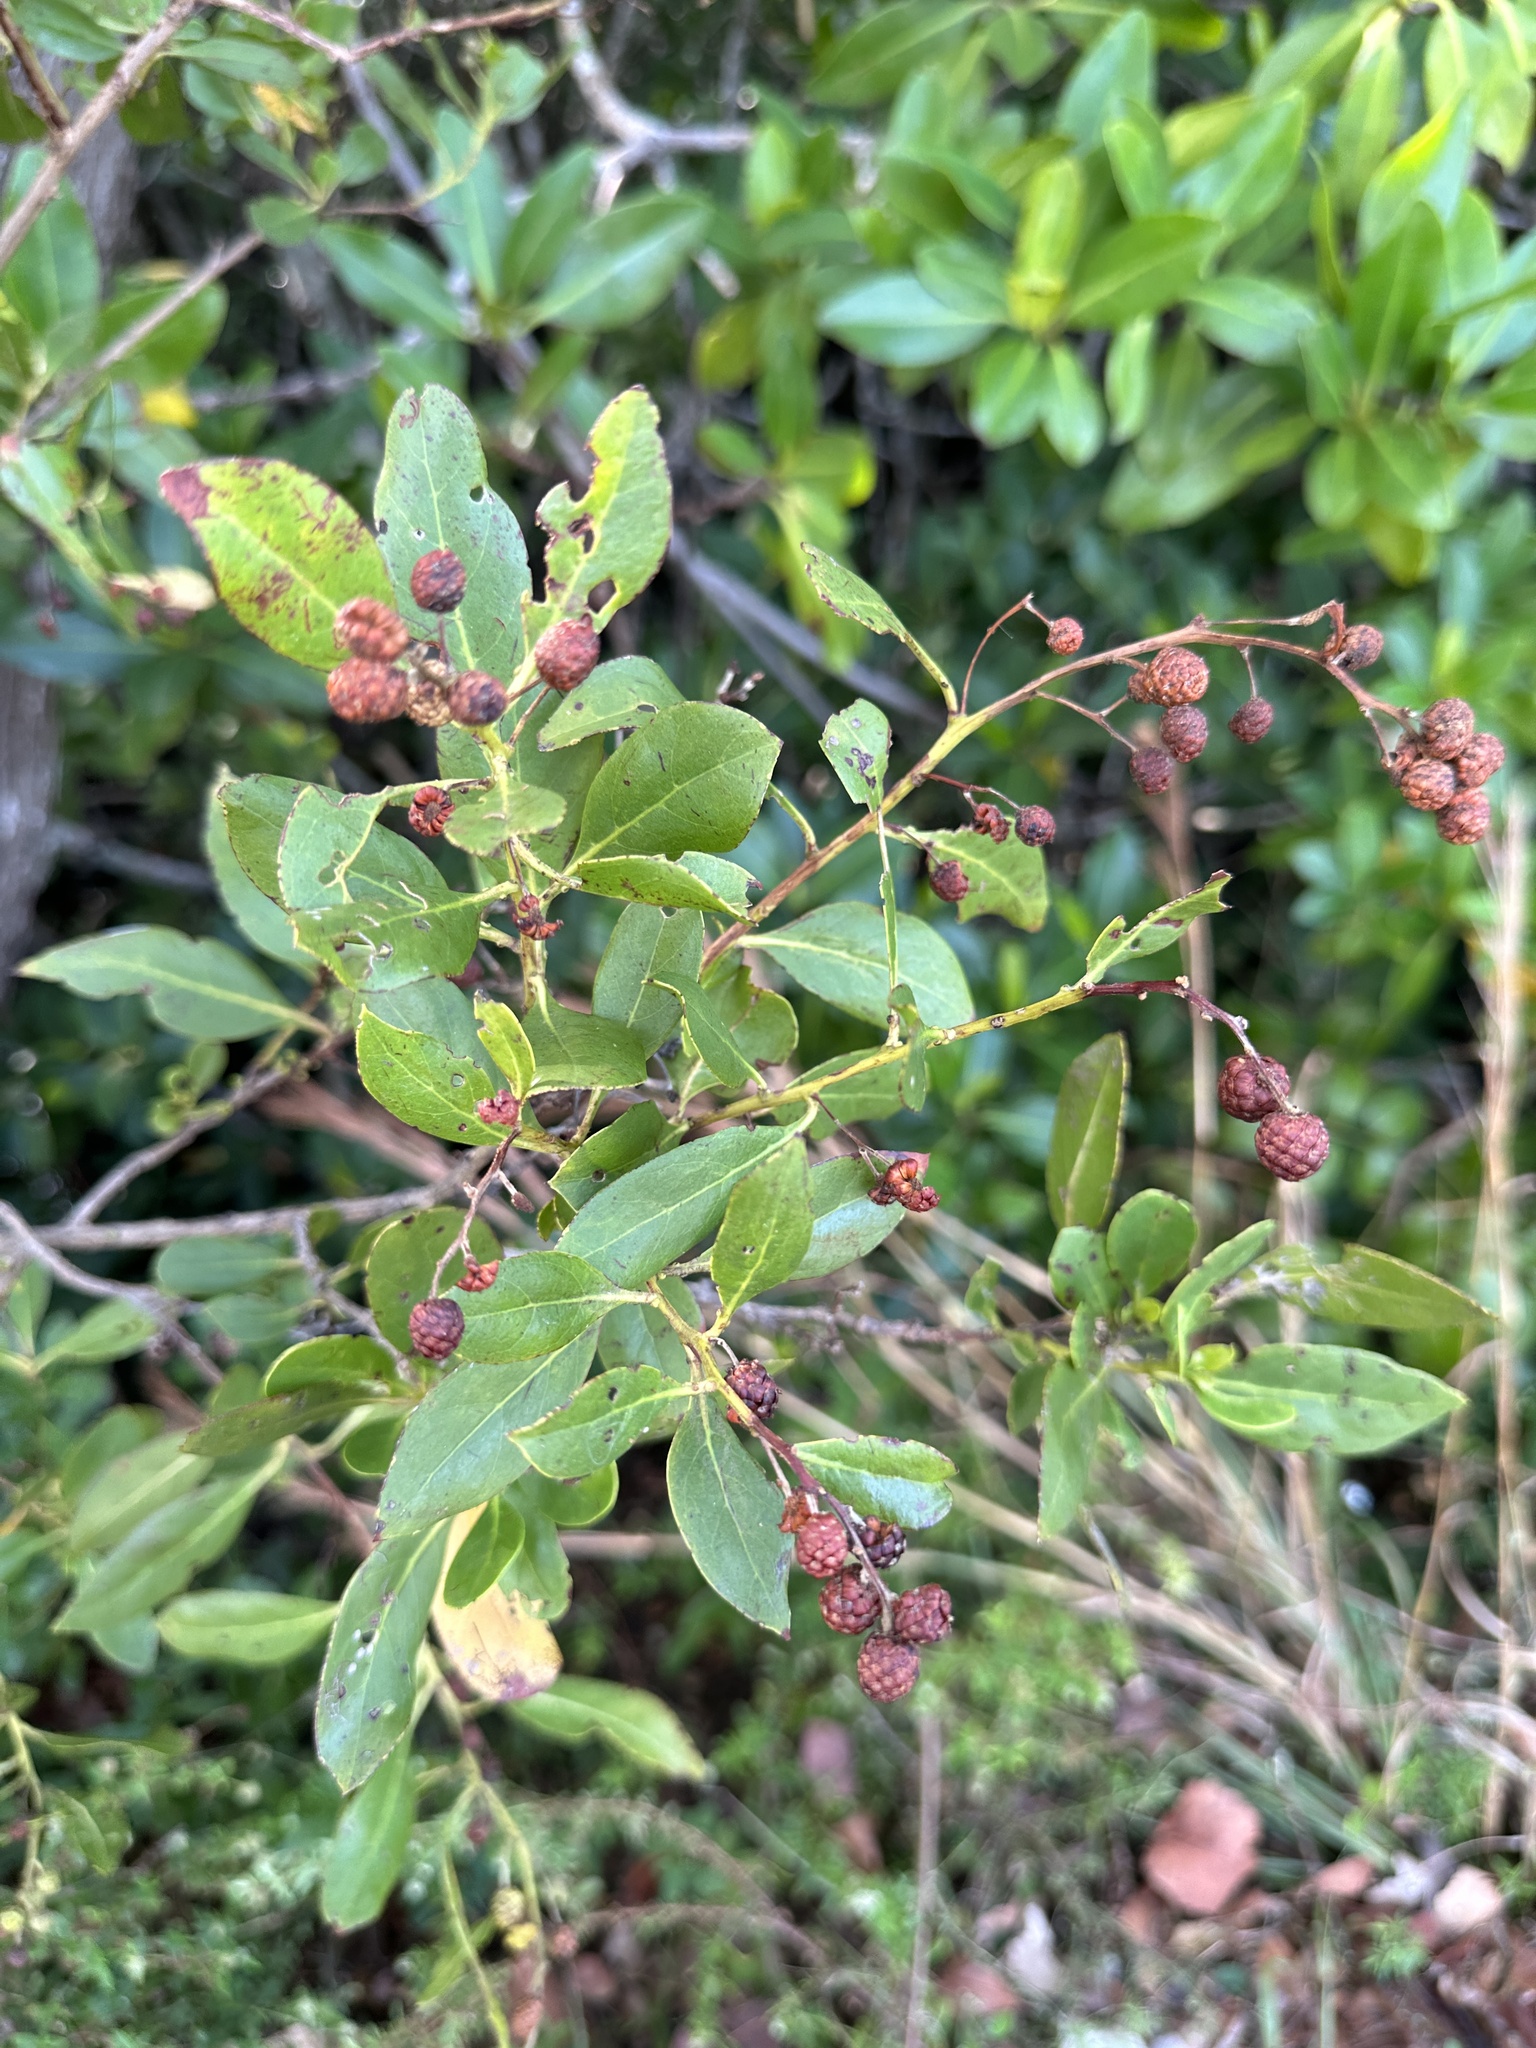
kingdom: Plantae
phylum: Tracheophyta
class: Magnoliopsida
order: Myrtales
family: Combretaceae
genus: Conocarpus
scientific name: Conocarpus erectus
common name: Button mangrove
